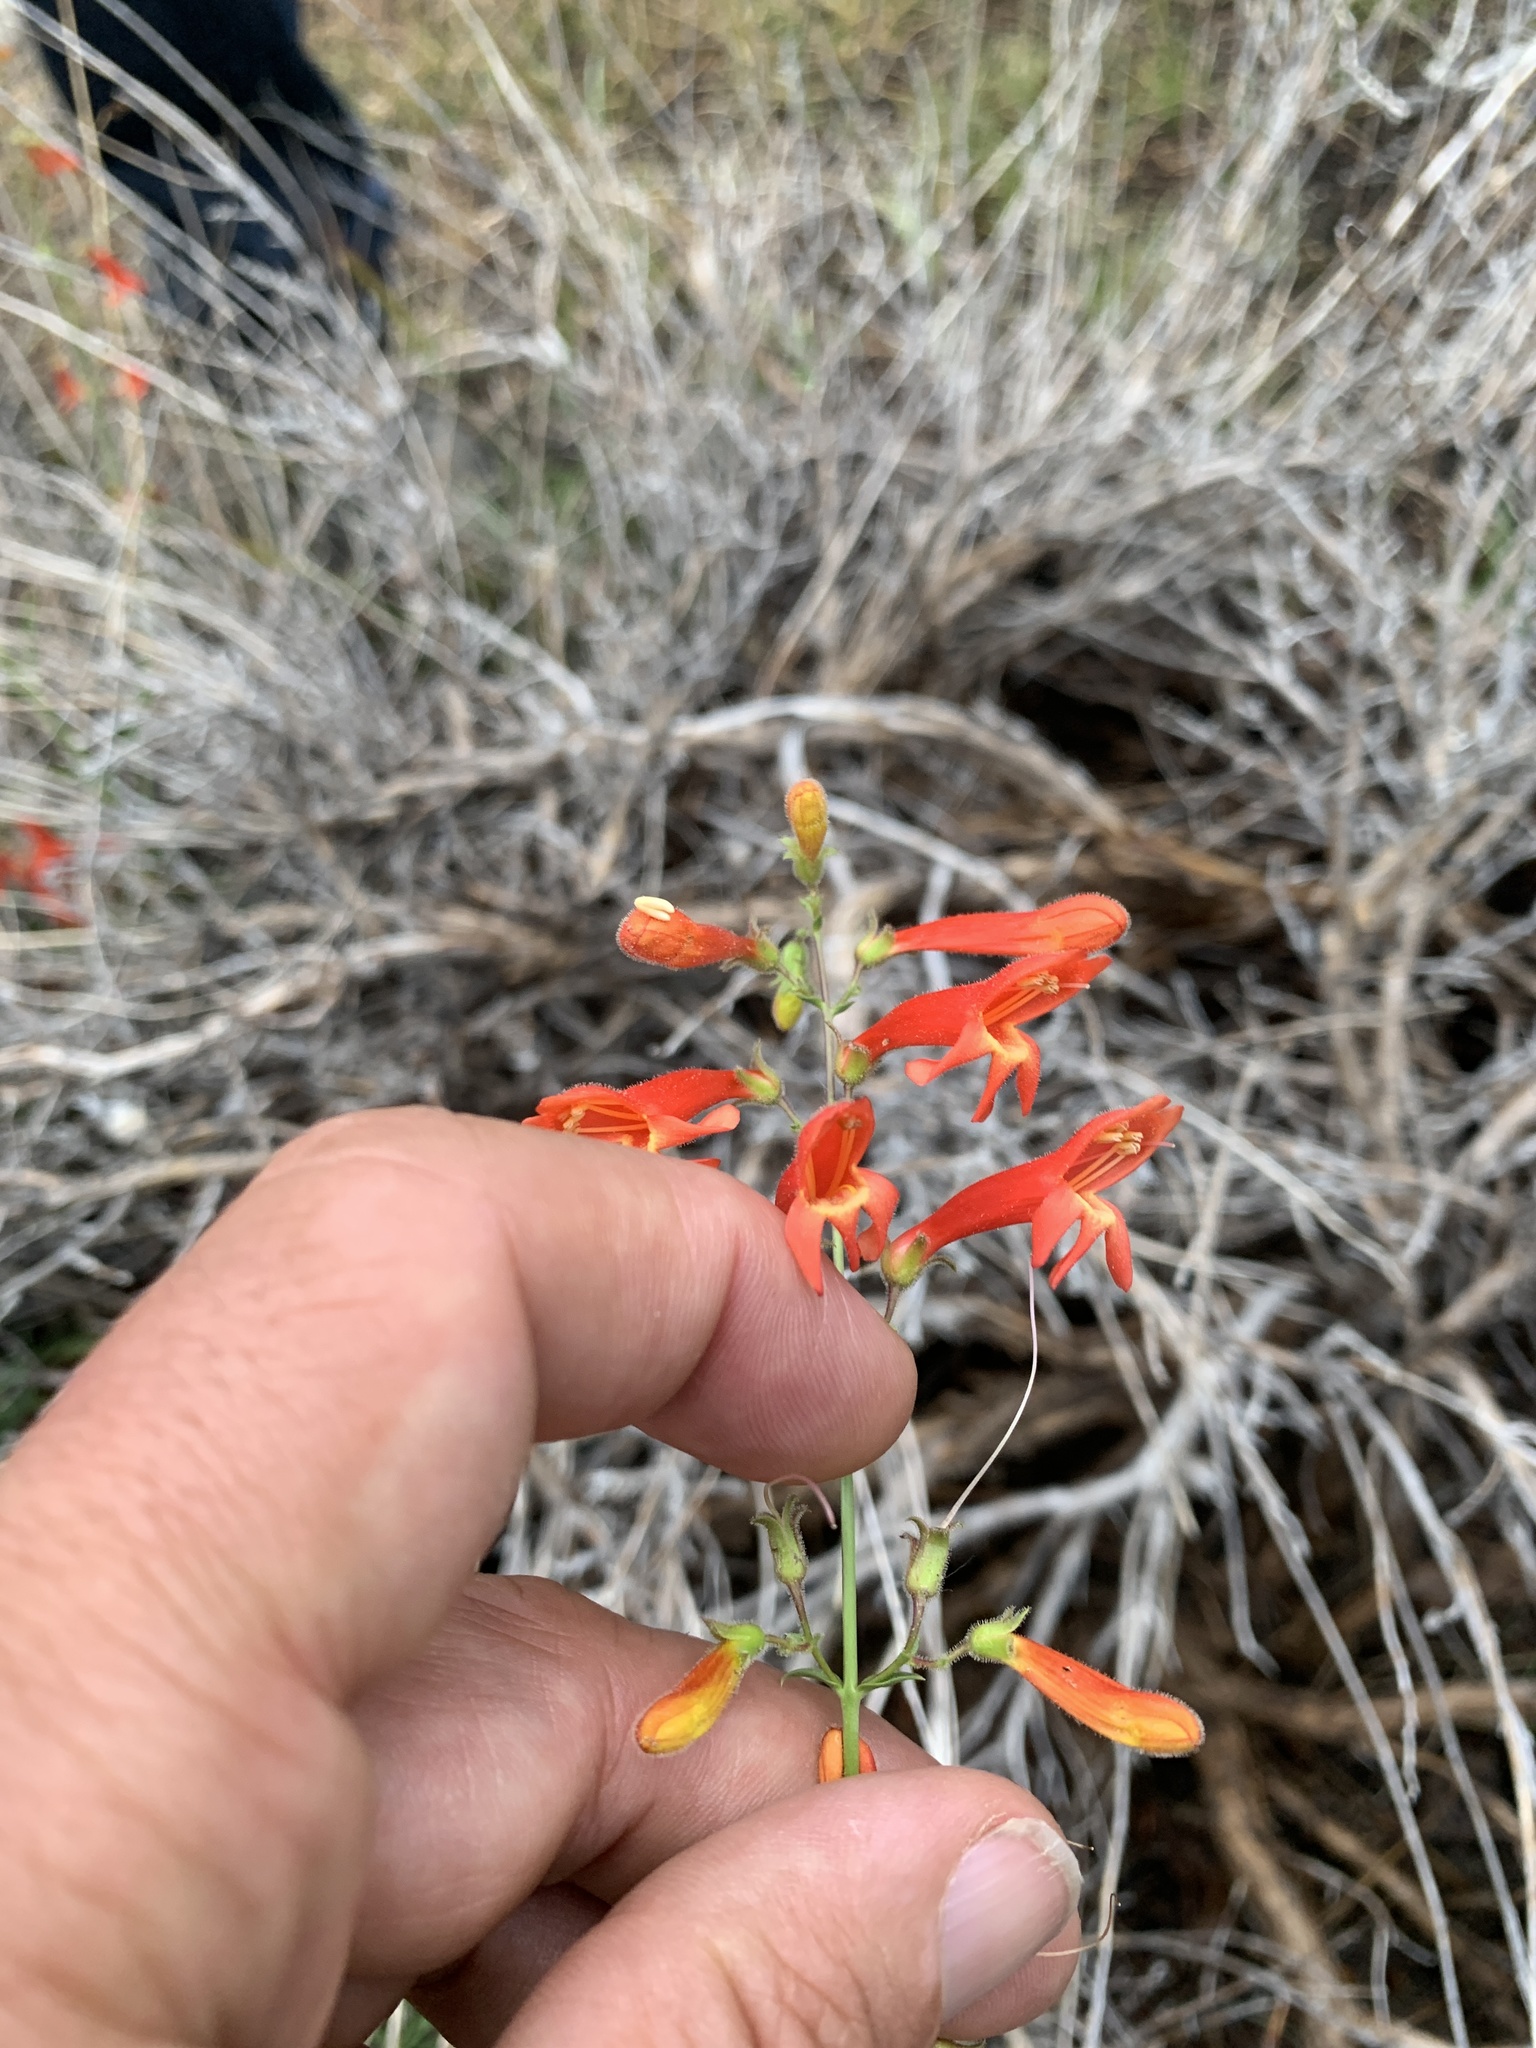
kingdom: Plantae
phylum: Tracheophyta
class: Magnoliopsida
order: Lamiales
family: Plantaginaceae
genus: Penstemon
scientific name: Penstemon rostriflorus
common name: Bridges's penstemon
